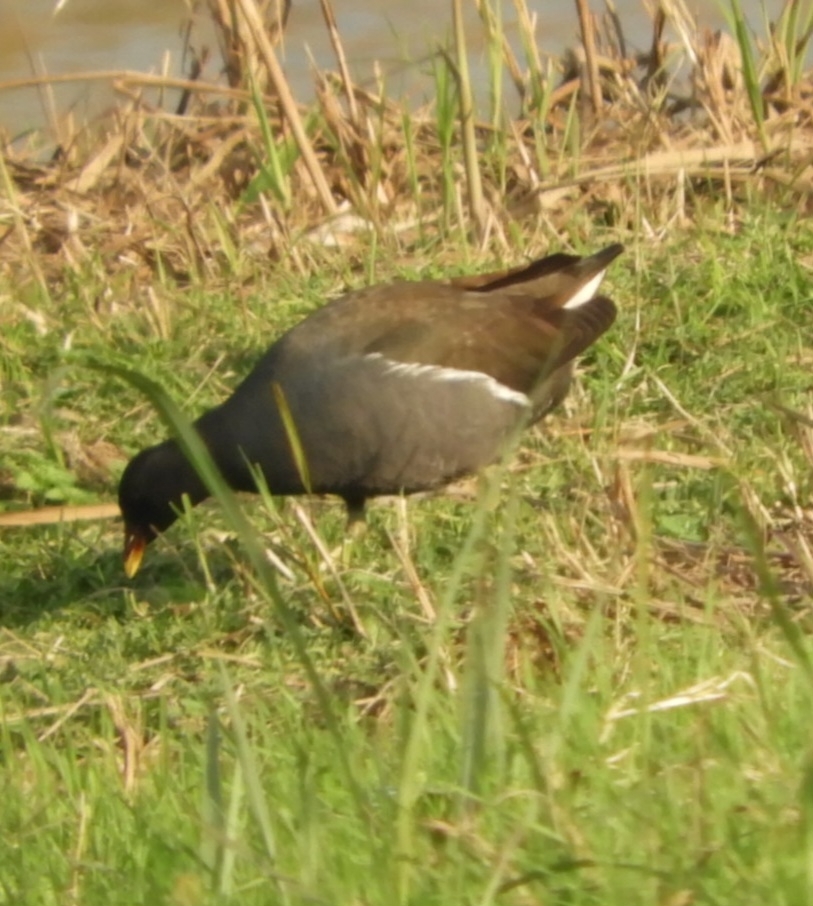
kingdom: Animalia
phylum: Chordata
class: Aves
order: Gruiformes
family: Rallidae
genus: Gallinula
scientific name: Gallinula chloropus
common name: Common moorhen
